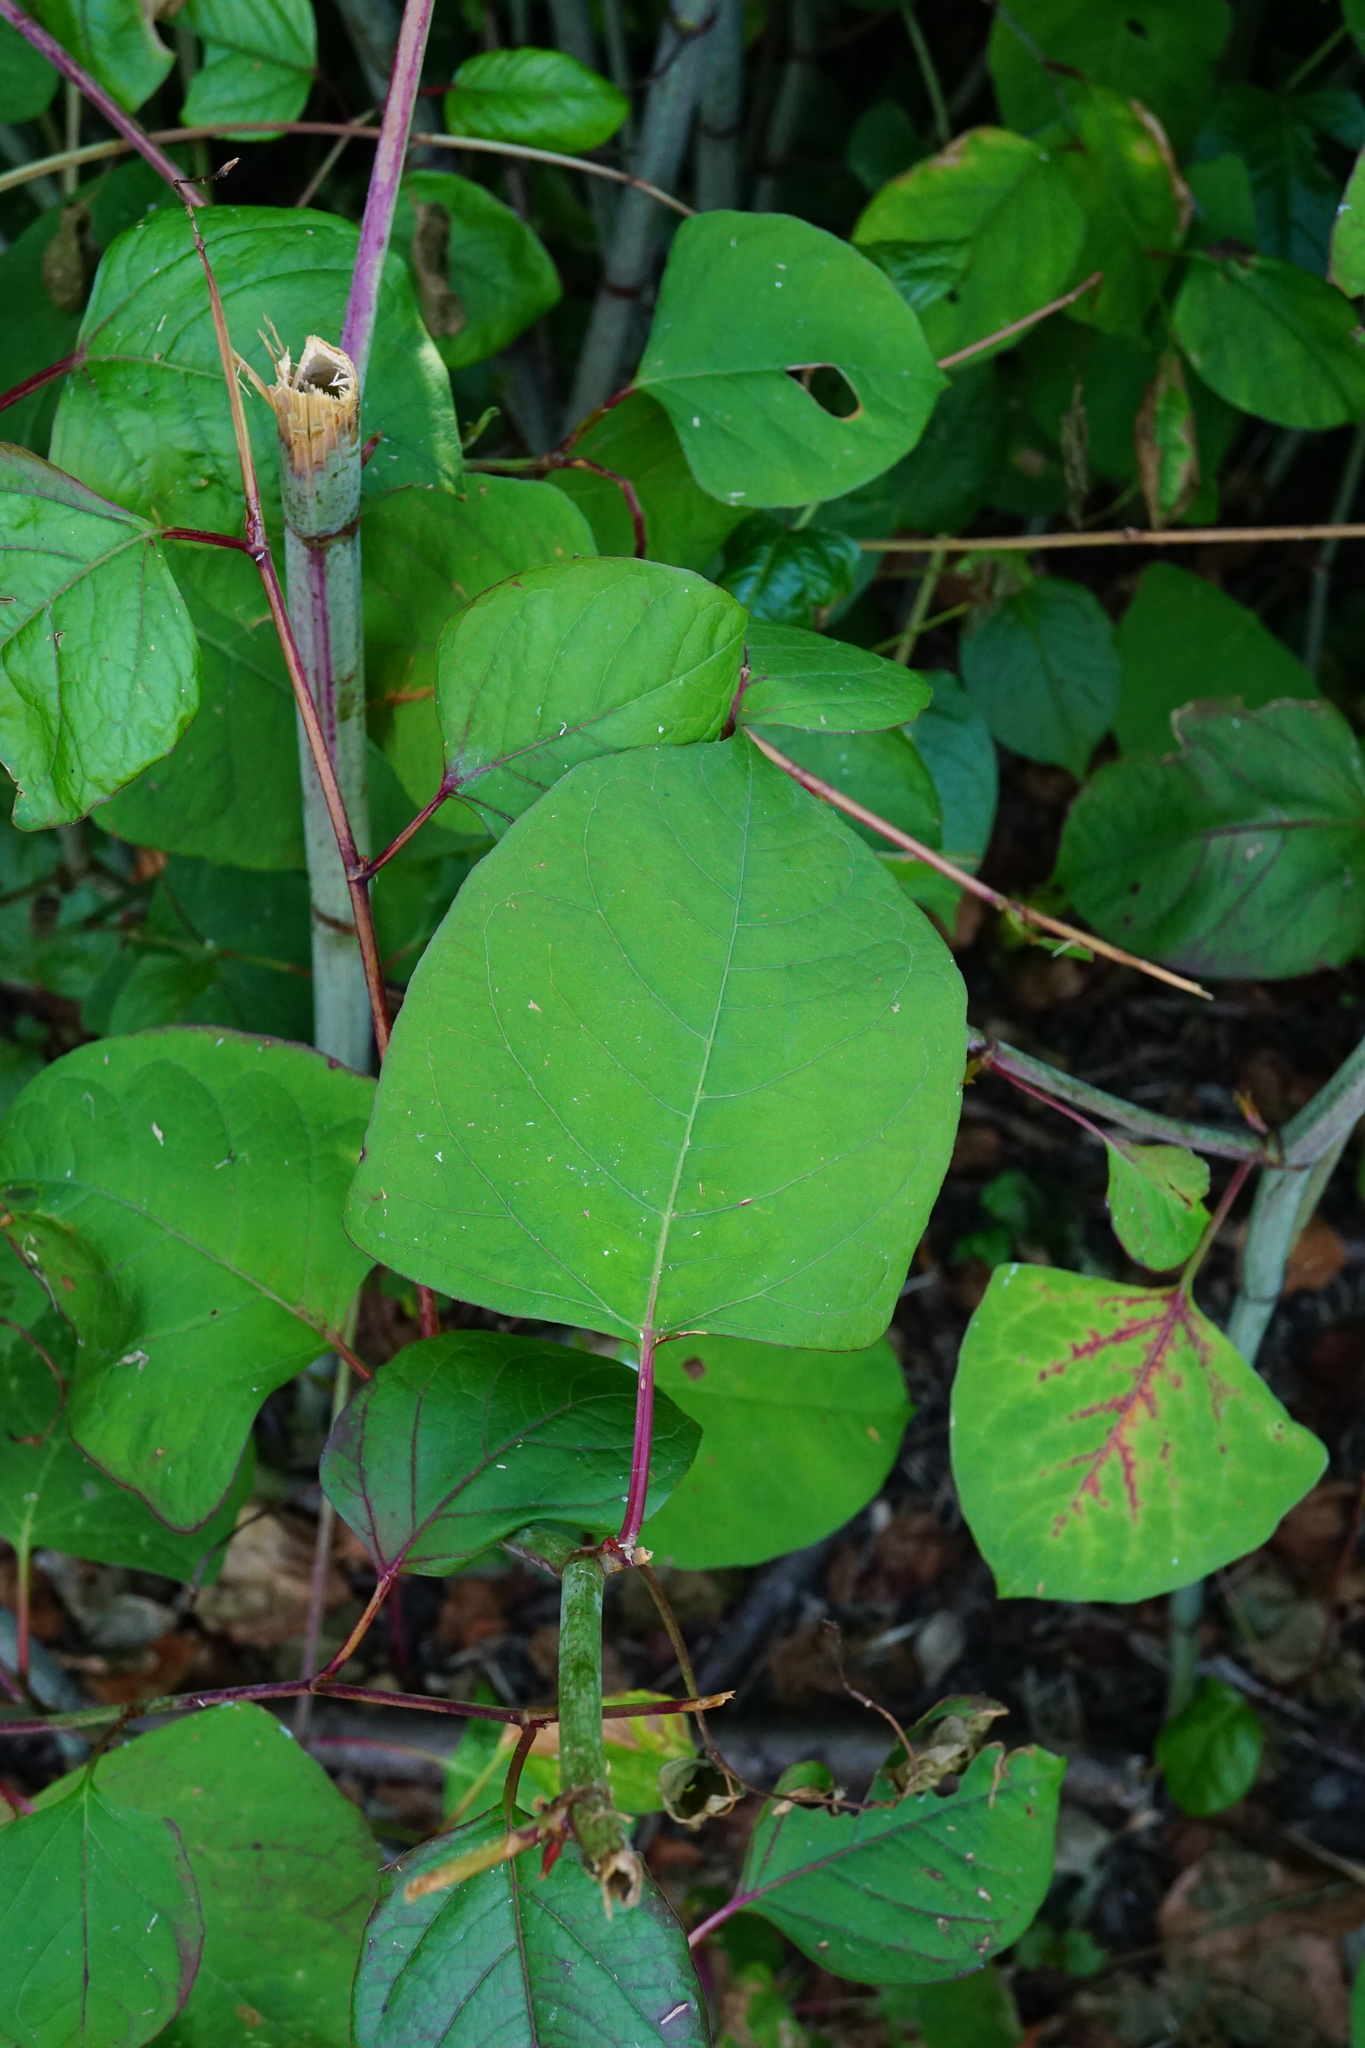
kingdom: Plantae
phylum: Tracheophyta
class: Magnoliopsida
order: Caryophyllales
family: Polygonaceae
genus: Reynoutria
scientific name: Reynoutria japonica
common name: Japanese knotweed
